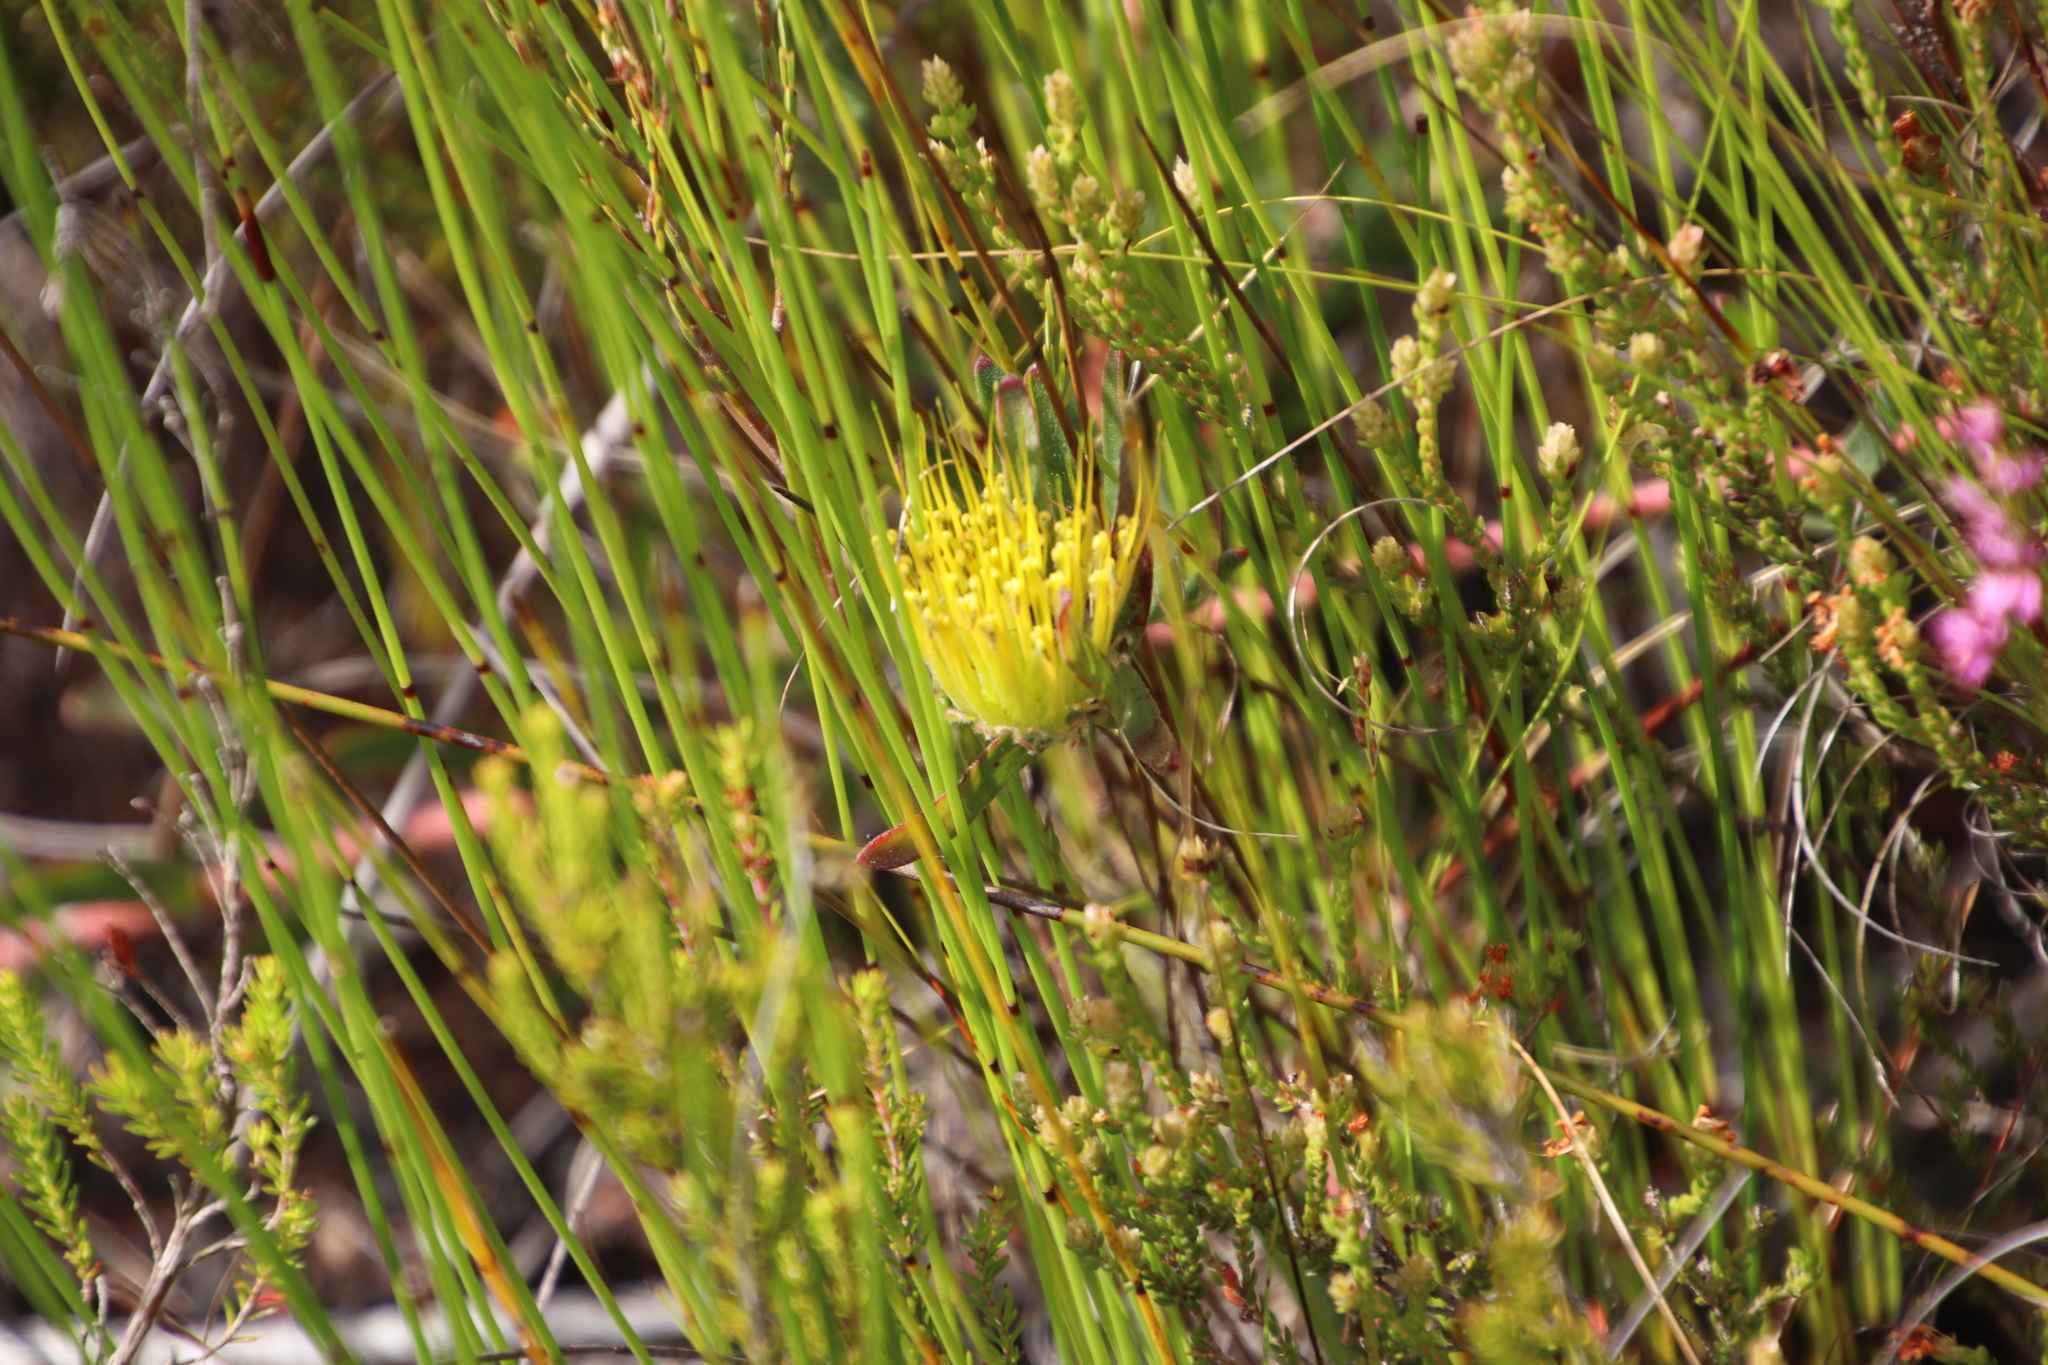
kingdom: Plantae
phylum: Tracheophyta
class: Magnoliopsida
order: Proteales
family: Proteaceae
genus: Leucospermum
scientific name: Leucospermum gracile
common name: Hermanus pincushion
